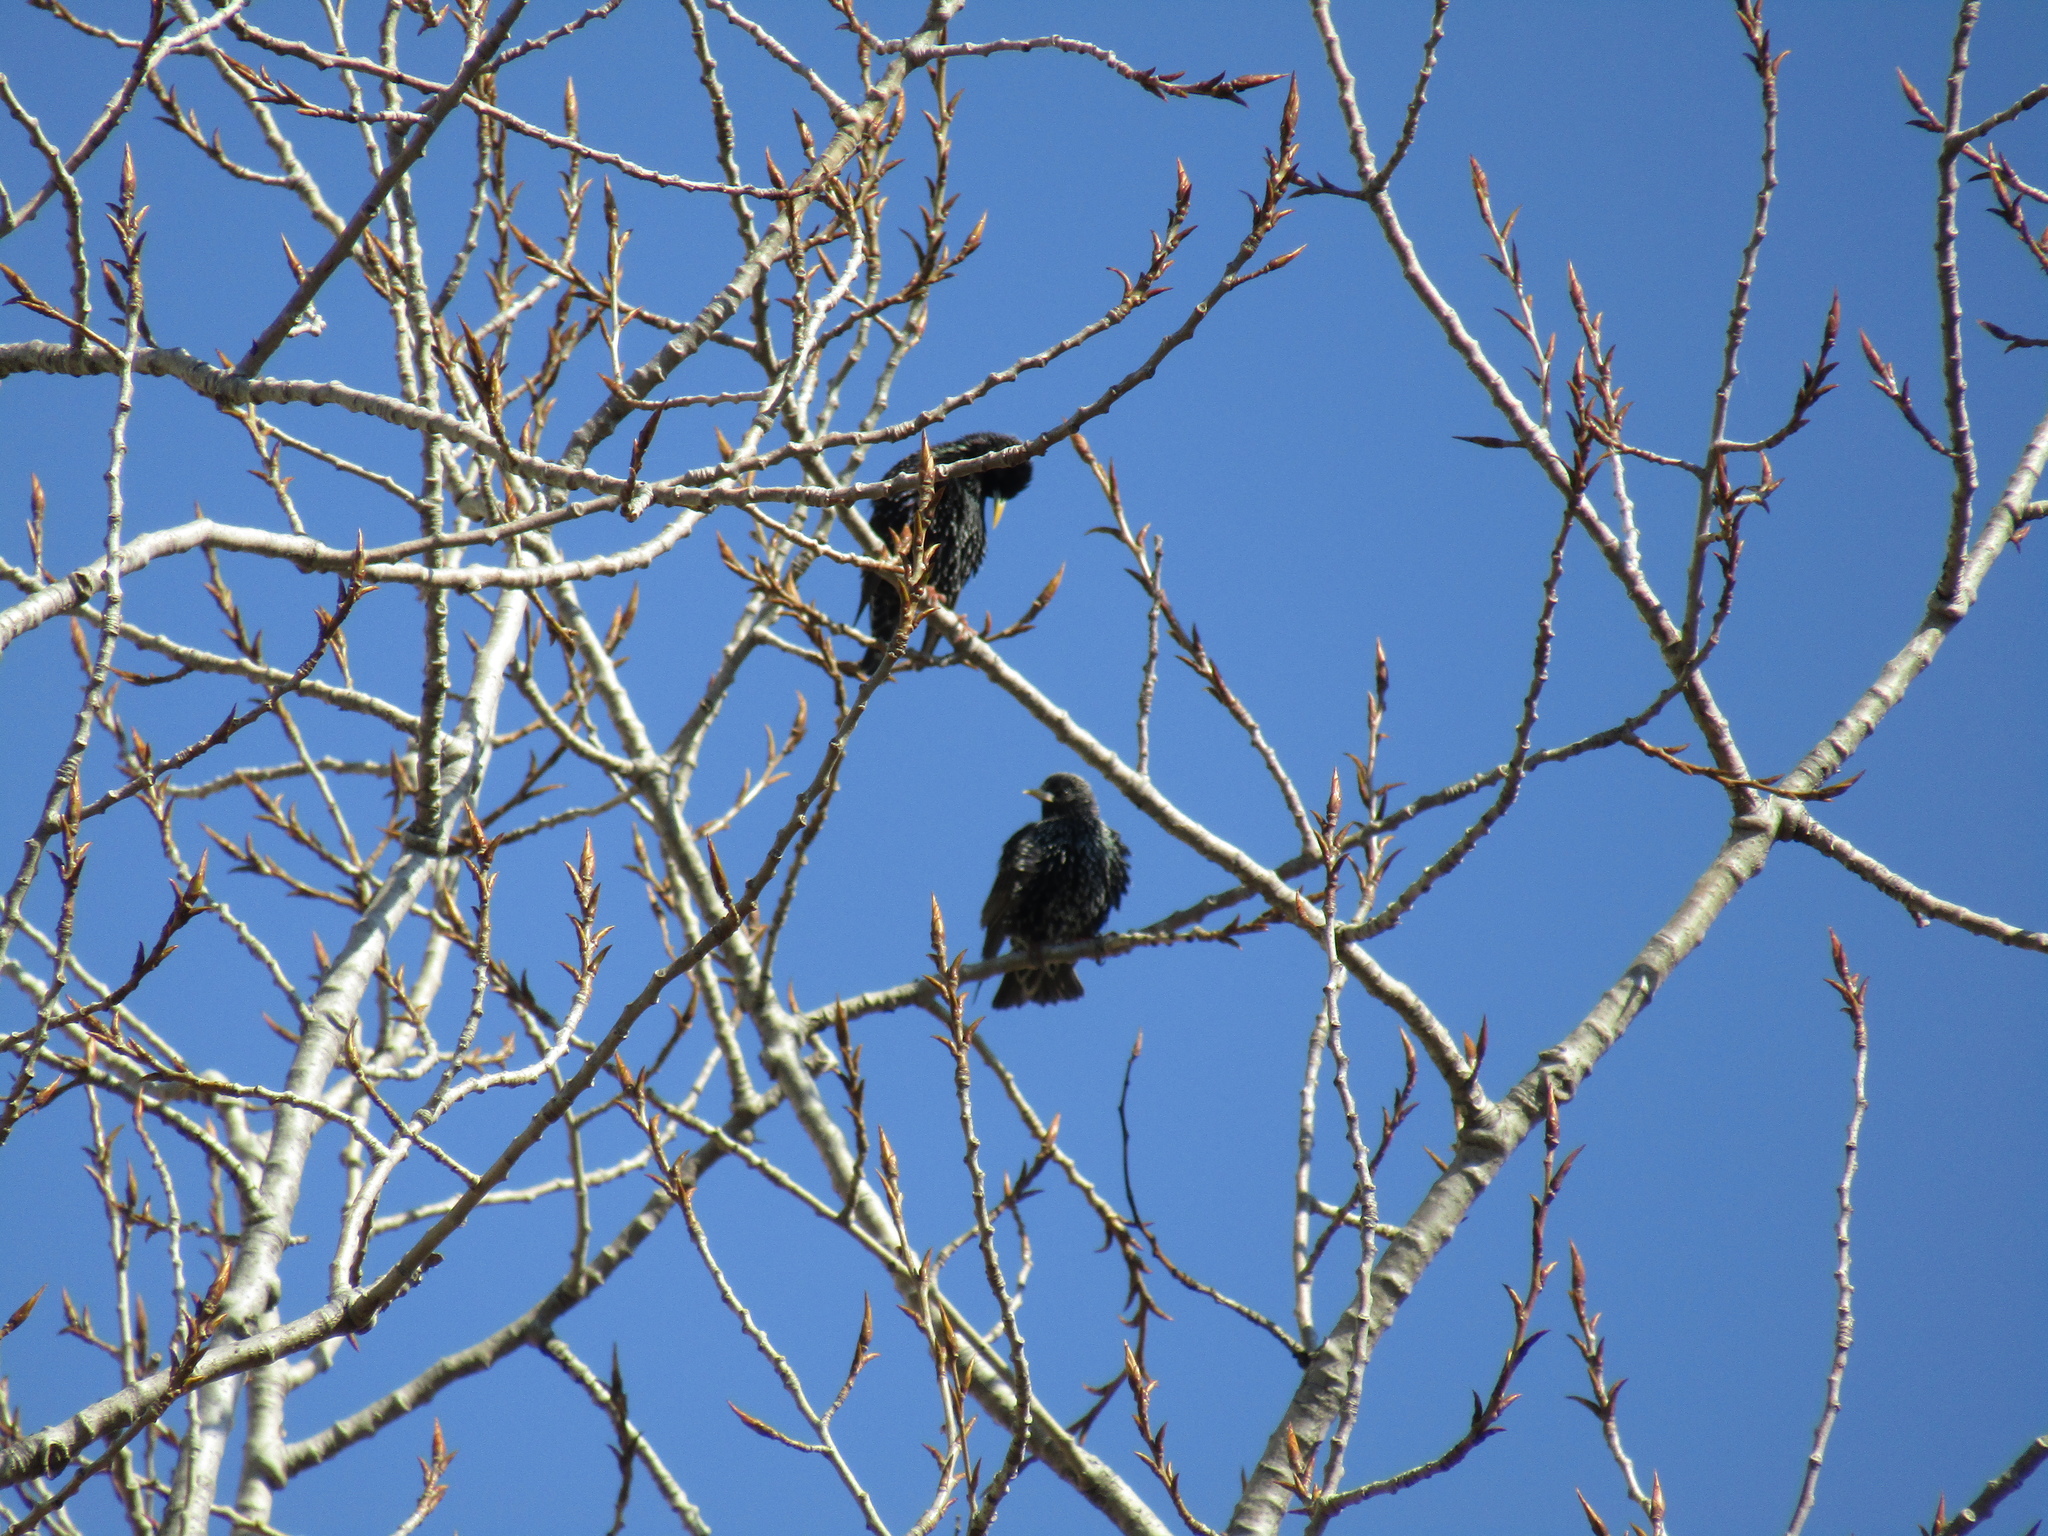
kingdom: Animalia
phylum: Chordata
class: Aves
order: Passeriformes
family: Sturnidae
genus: Sturnus
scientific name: Sturnus vulgaris
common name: Common starling
